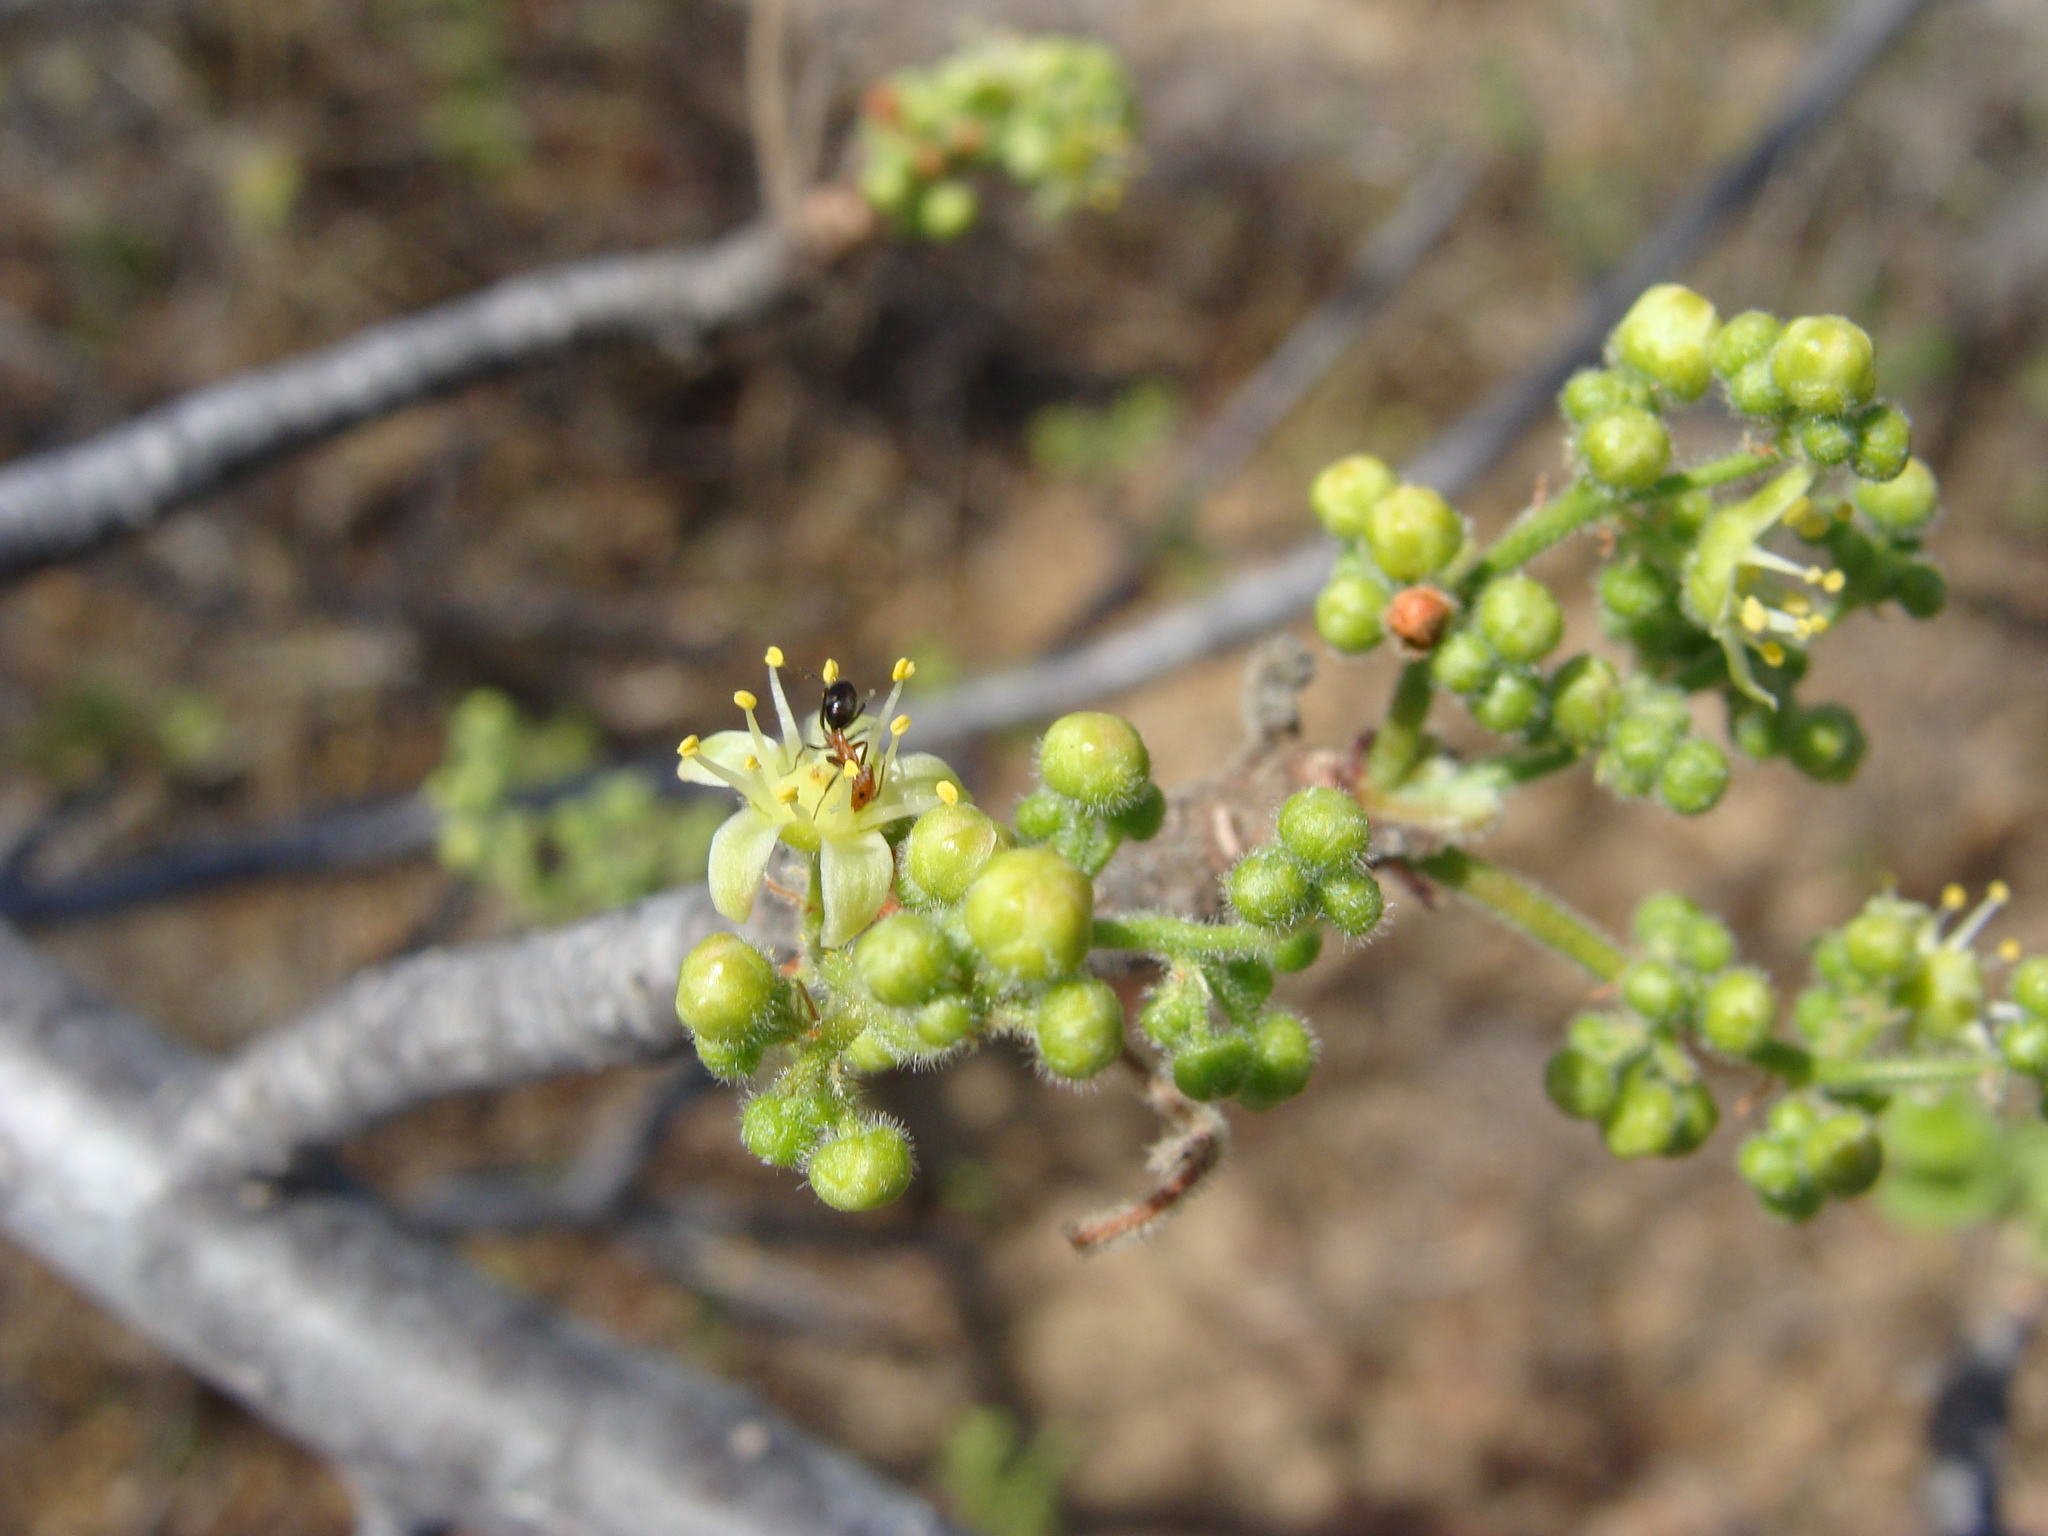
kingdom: Plantae
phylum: Tracheophyta
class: Magnoliopsida
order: Sapindales
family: Anacardiaceae
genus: Cyrtocarpa
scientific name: Cyrtocarpa edulis
